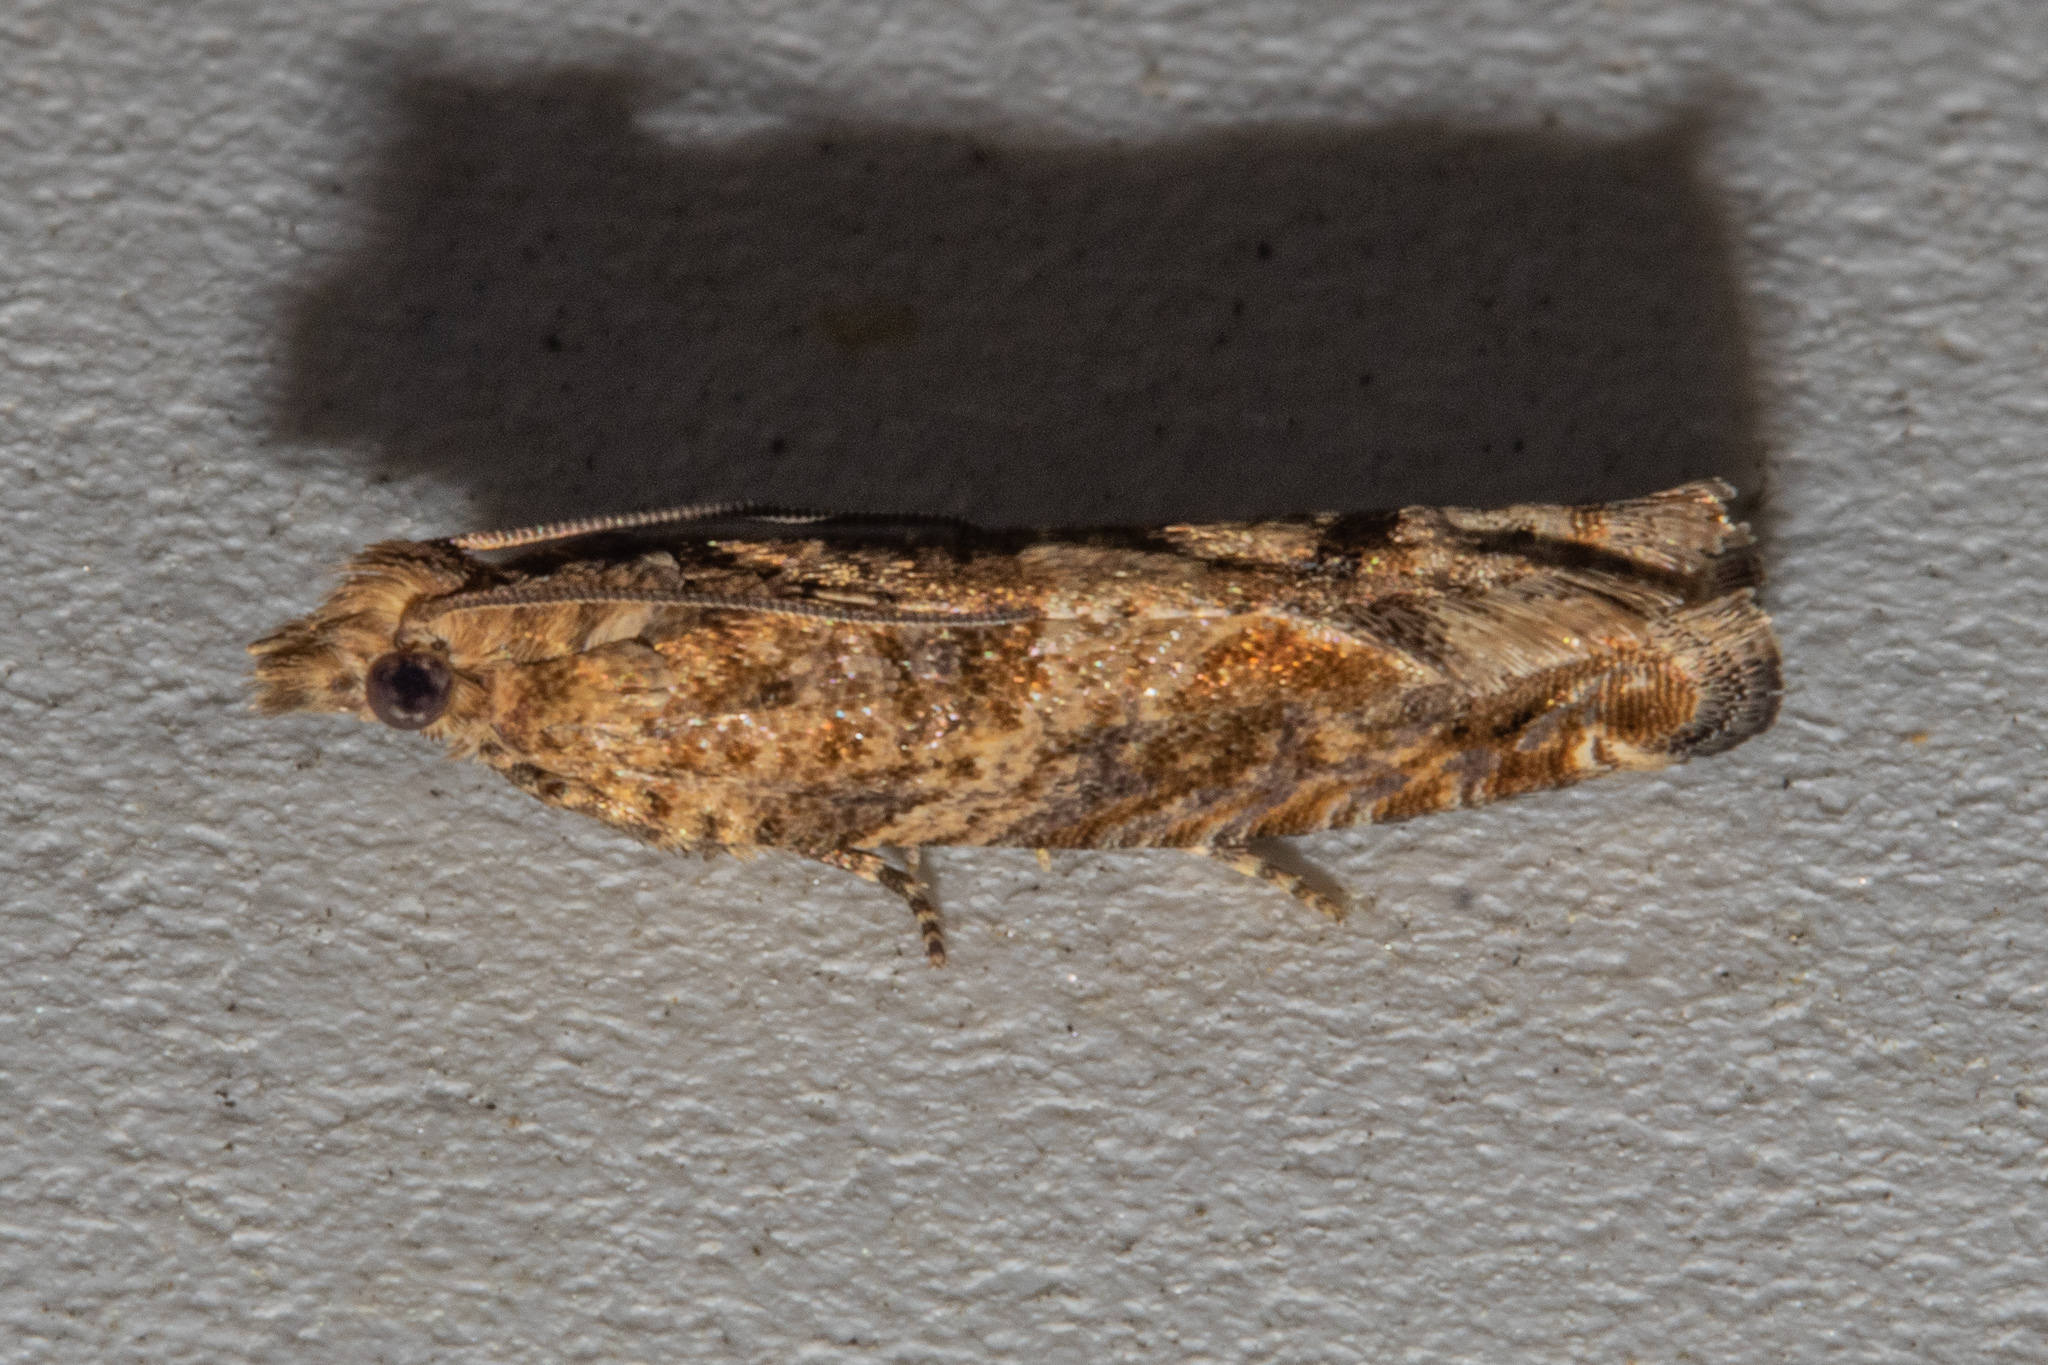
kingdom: Animalia
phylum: Arthropoda
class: Insecta
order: Lepidoptera
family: Tortricidae
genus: Crocidosema
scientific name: Crocidosema plebejana
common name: Southern bell
